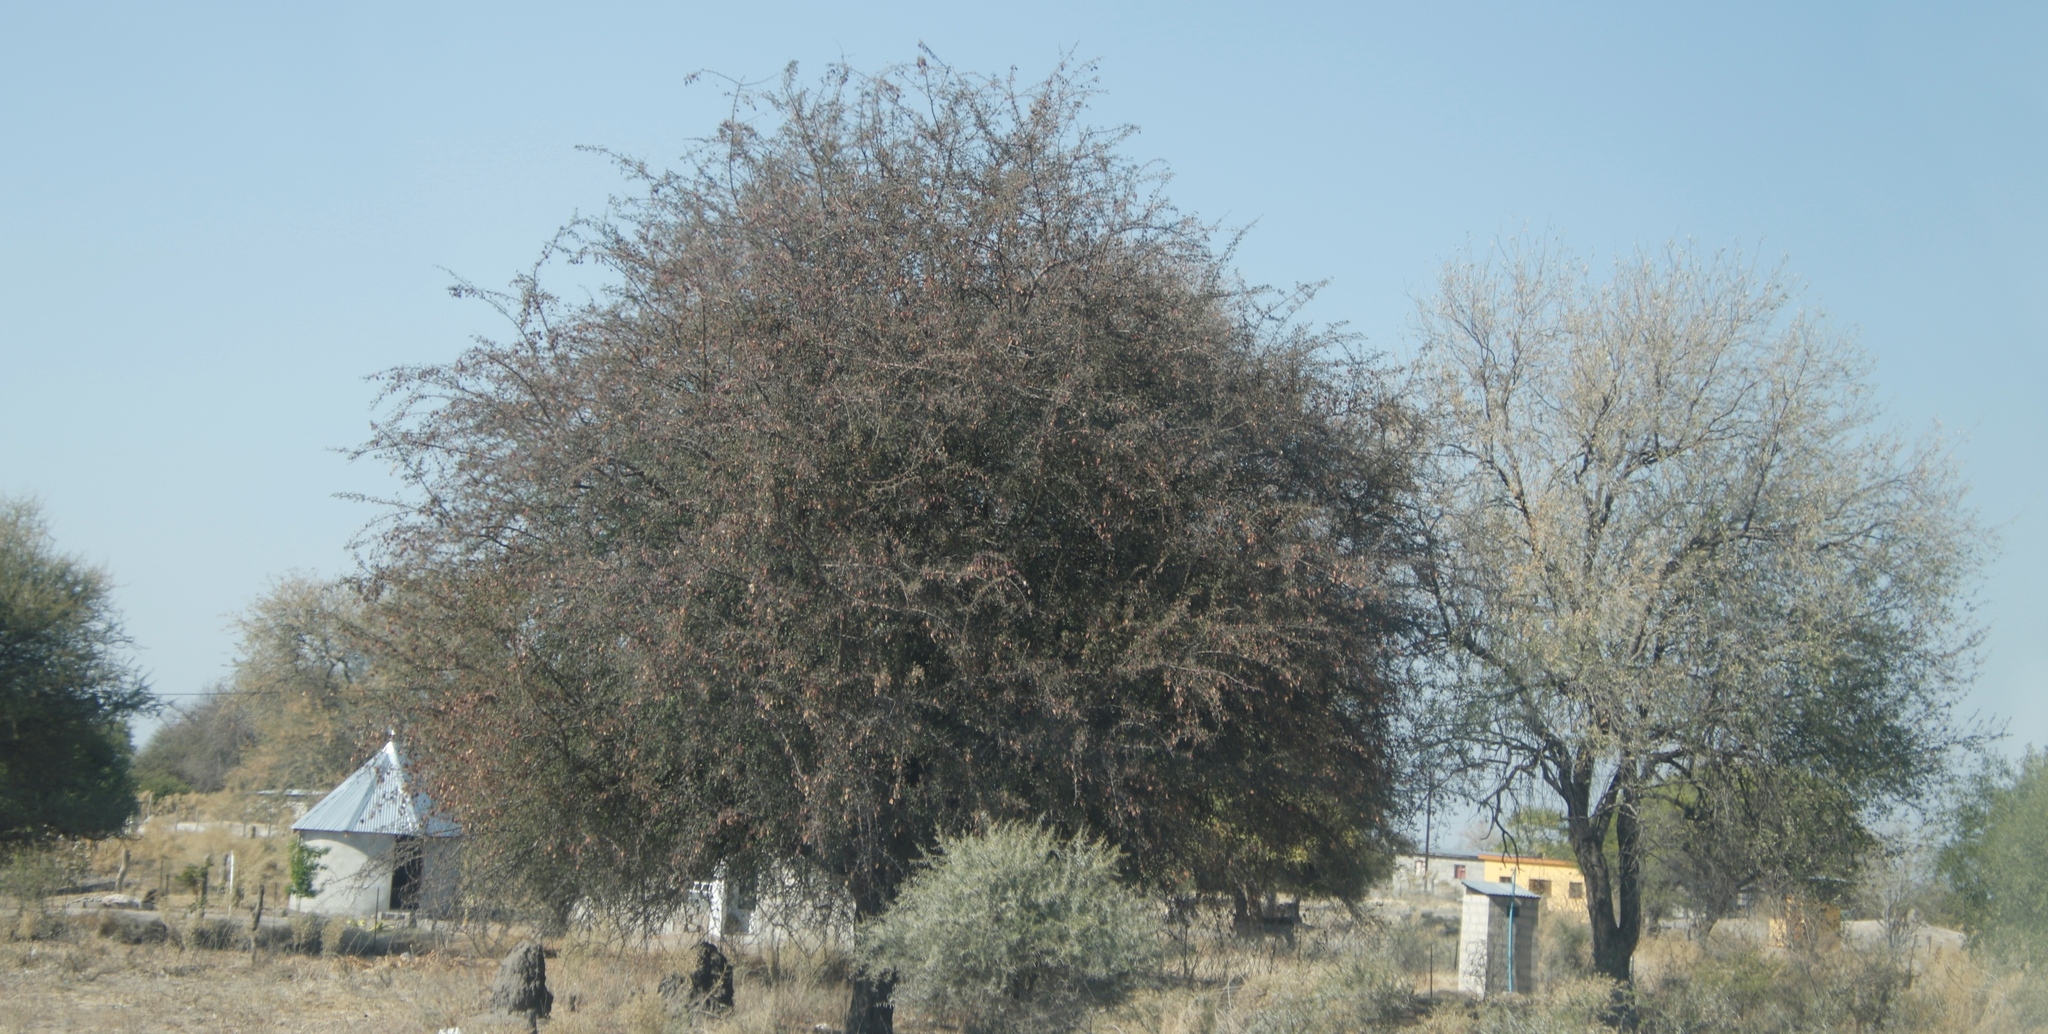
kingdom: Plantae
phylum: Tracheophyta
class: Magnoliopsida
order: Myrtales
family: Combretaceae
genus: Terminalia
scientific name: Terminalia prunioides
